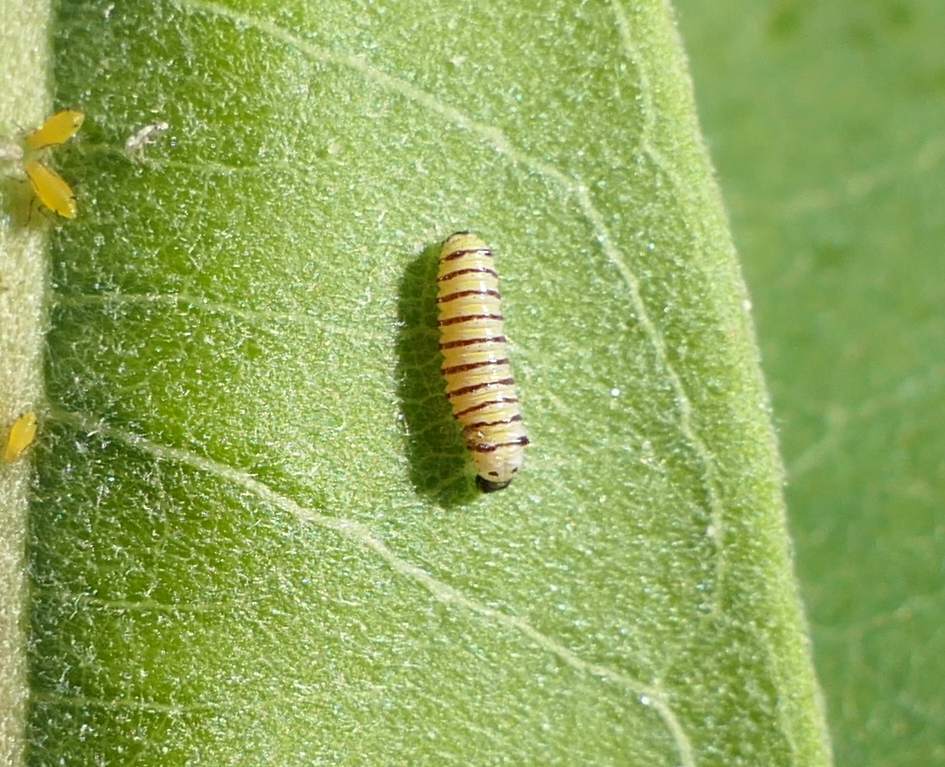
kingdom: Animalia
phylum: Arthropoda
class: Insecta
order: Lepidoptera
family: Nymphalidae
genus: Danaus
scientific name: Danaus plexippus
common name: Monarch
